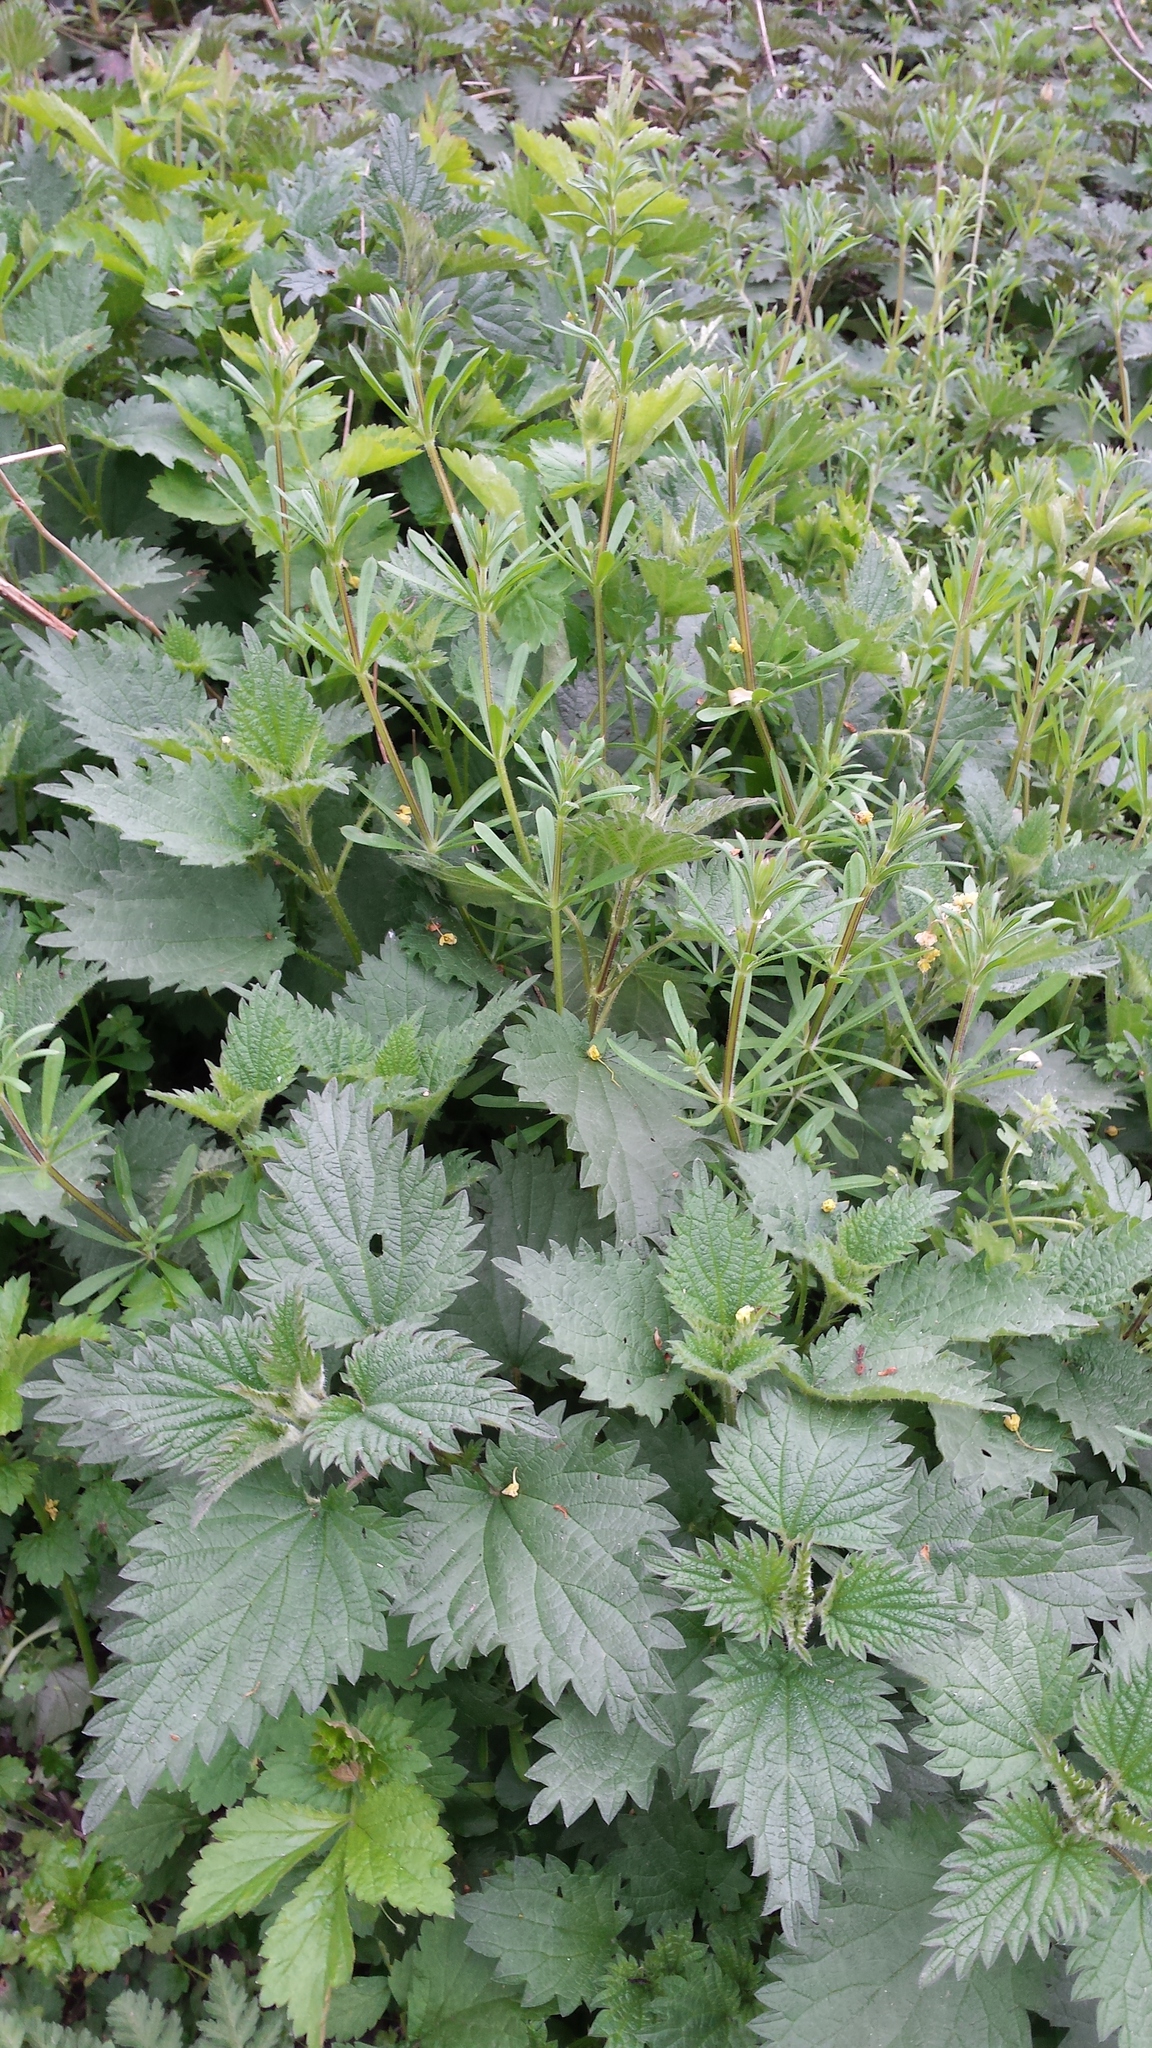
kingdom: Plantae
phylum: Tracheophyta
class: Magnoliopsida
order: Rosales
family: Urticaceae
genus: Urtica
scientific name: Urtica dioica
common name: Common nettle
